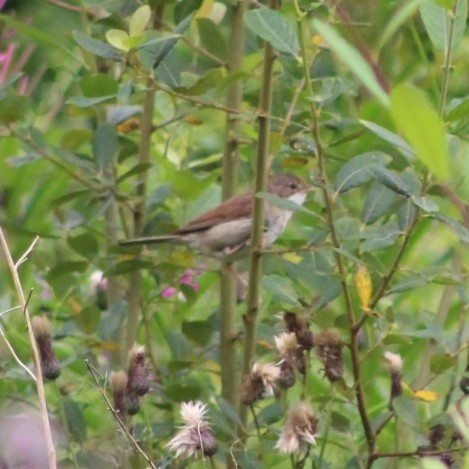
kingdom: Animalia
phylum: Chordata
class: Aves
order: Passeriformes
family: Sylviidae
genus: Sylvia
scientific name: Sylvia communis
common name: Common whitethroat
